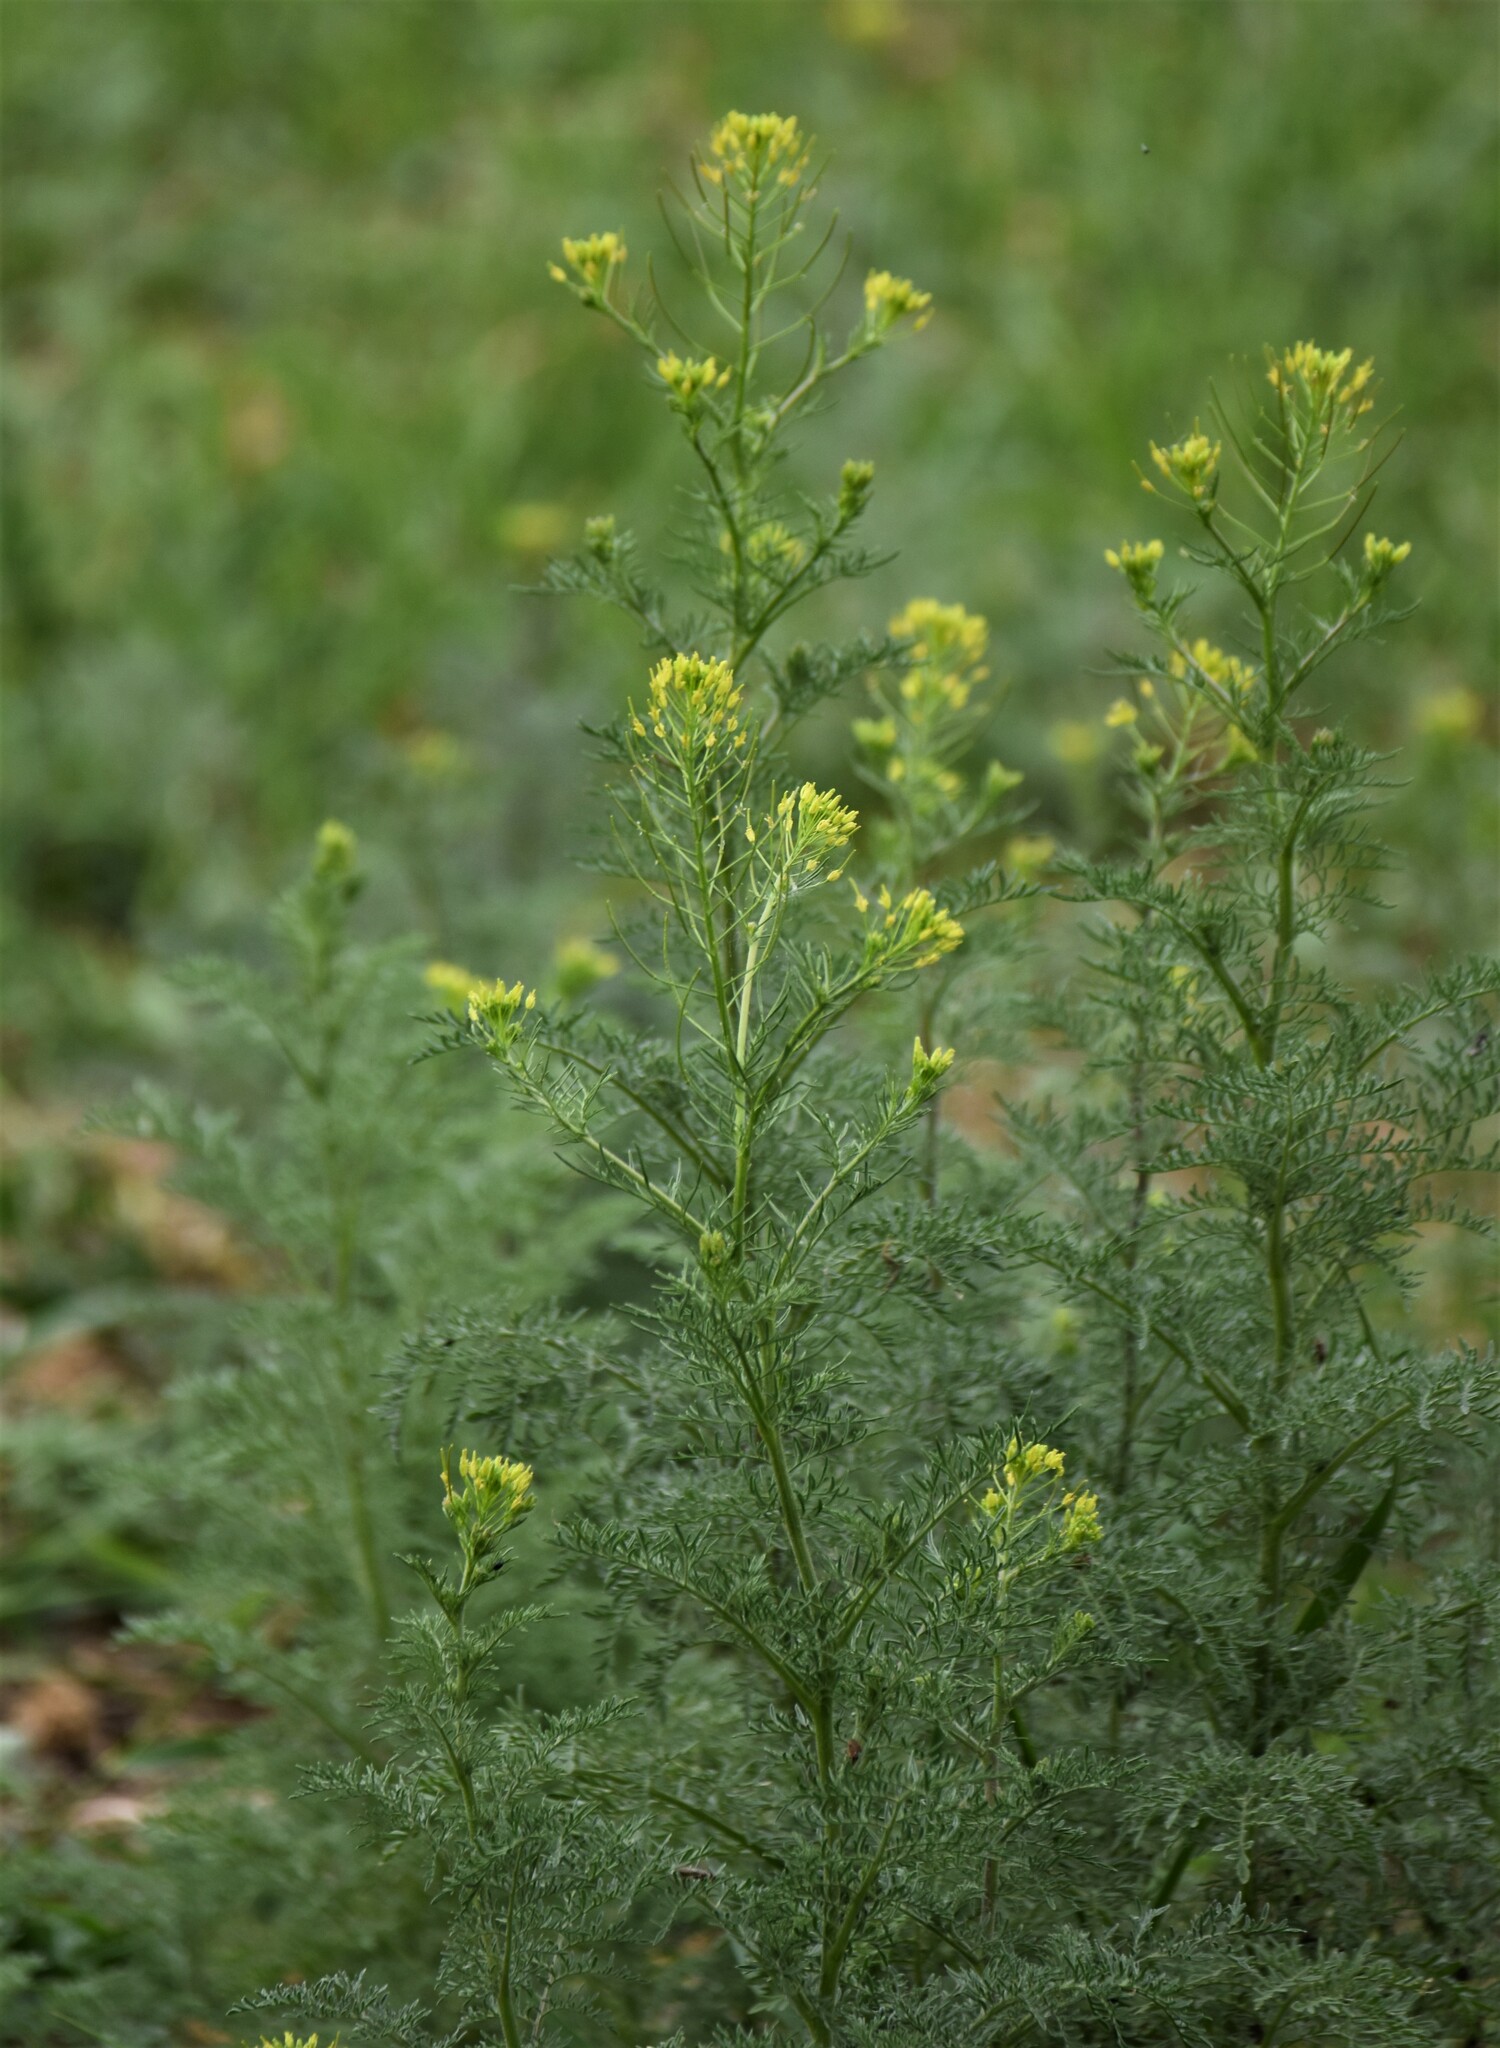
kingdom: Plantae
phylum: Tracheophyta
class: Magnoliopsida
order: Brassicales
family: Brassicaceae
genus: Descurainia
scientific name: Descurainia sophia
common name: Flixweed
